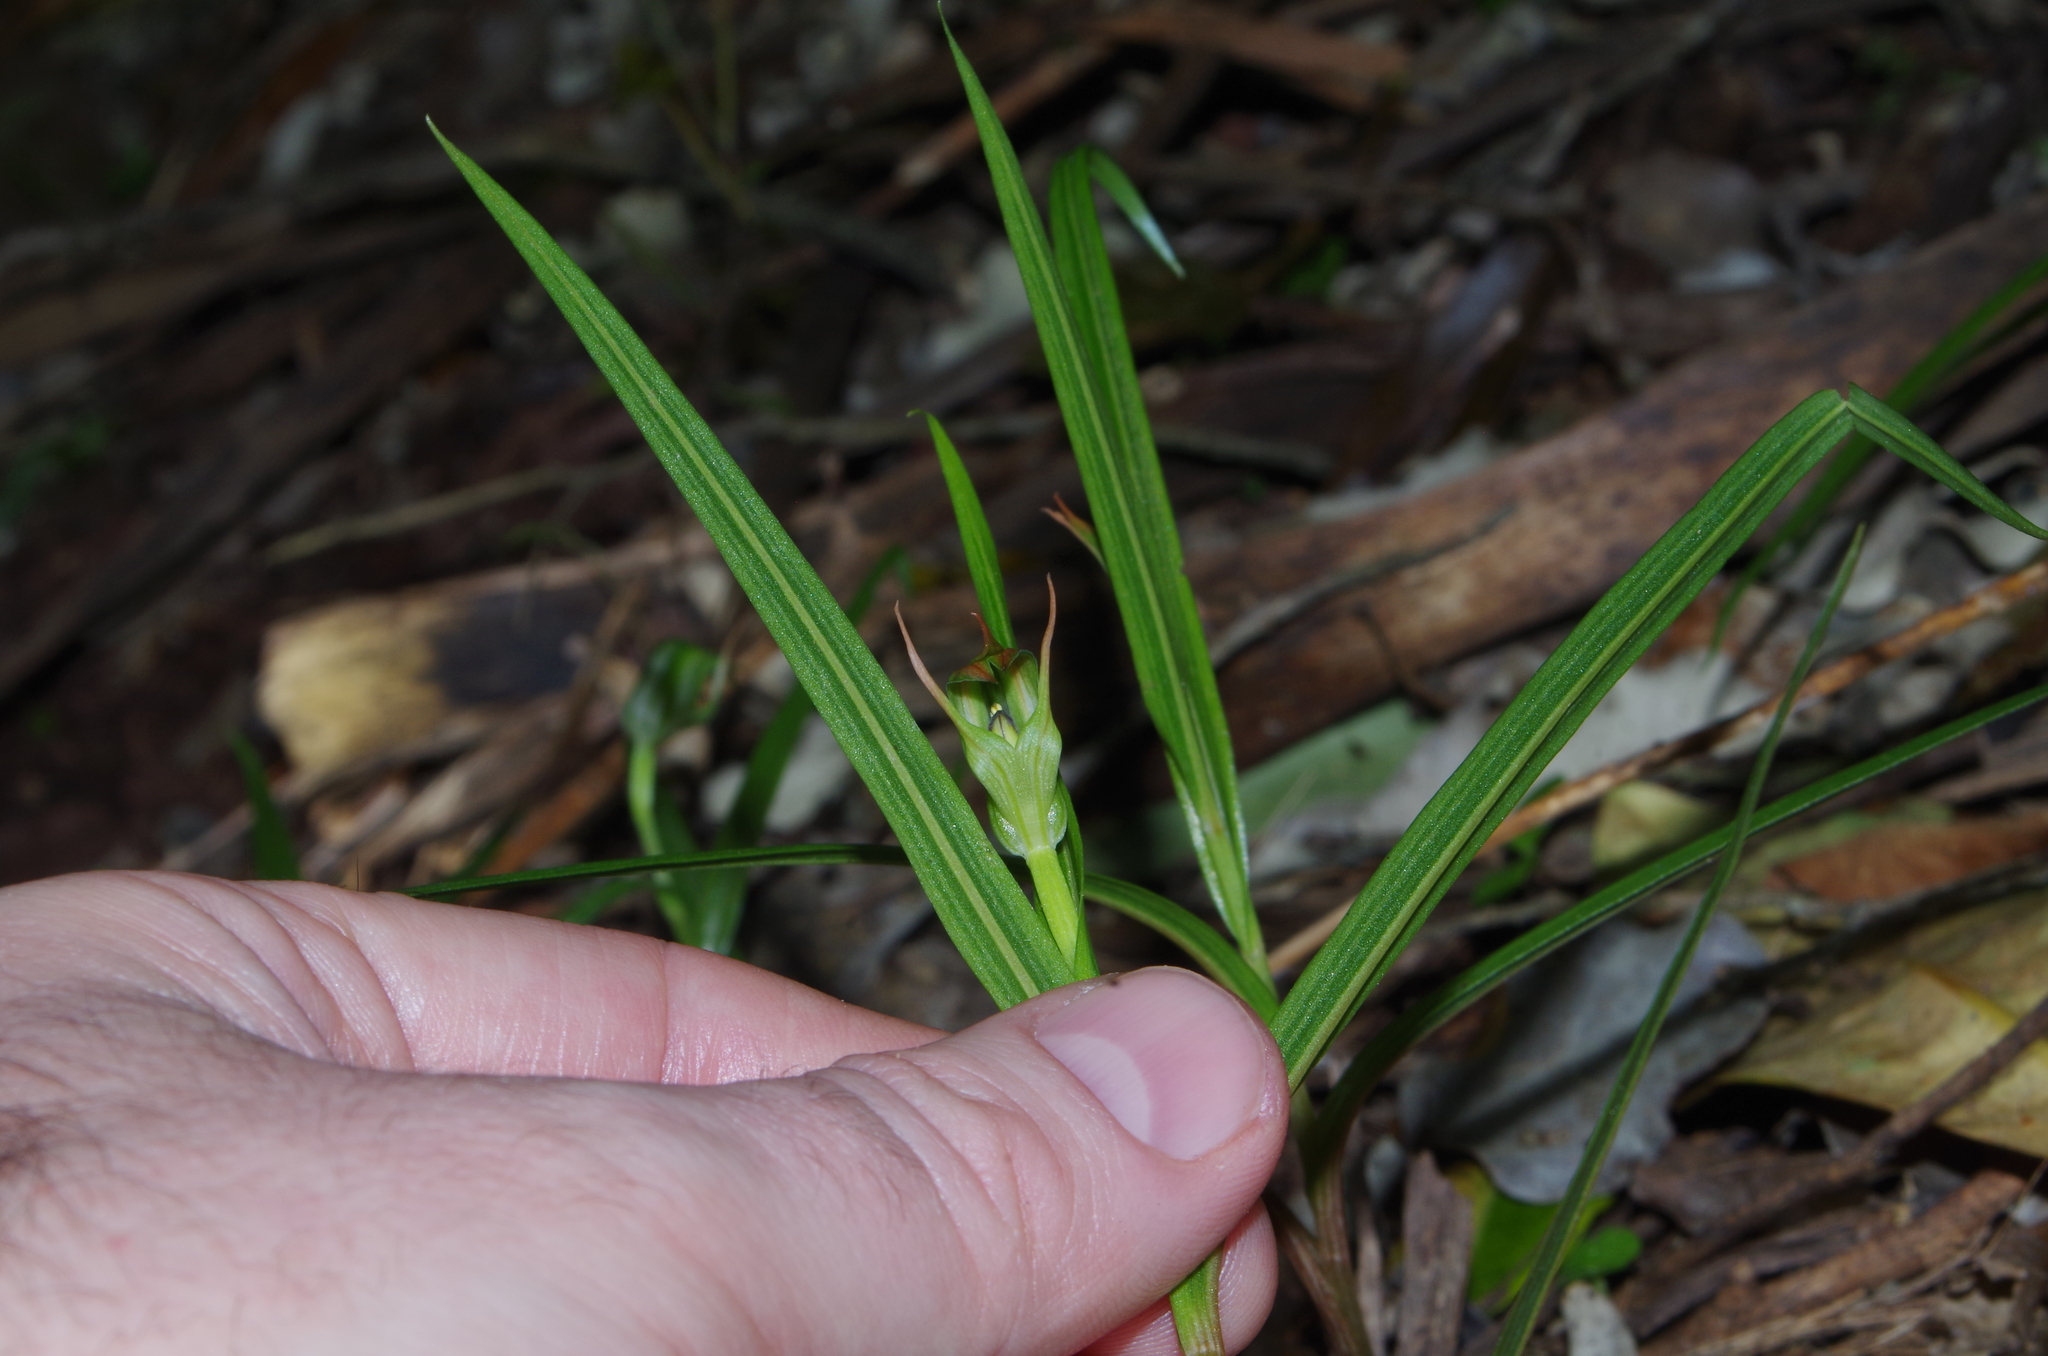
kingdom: Plantae
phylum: Tracheophyta
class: Liliopsida
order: Asparagales
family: Orchidaceae
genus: Pterostylis
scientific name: Pterostylis graminea
